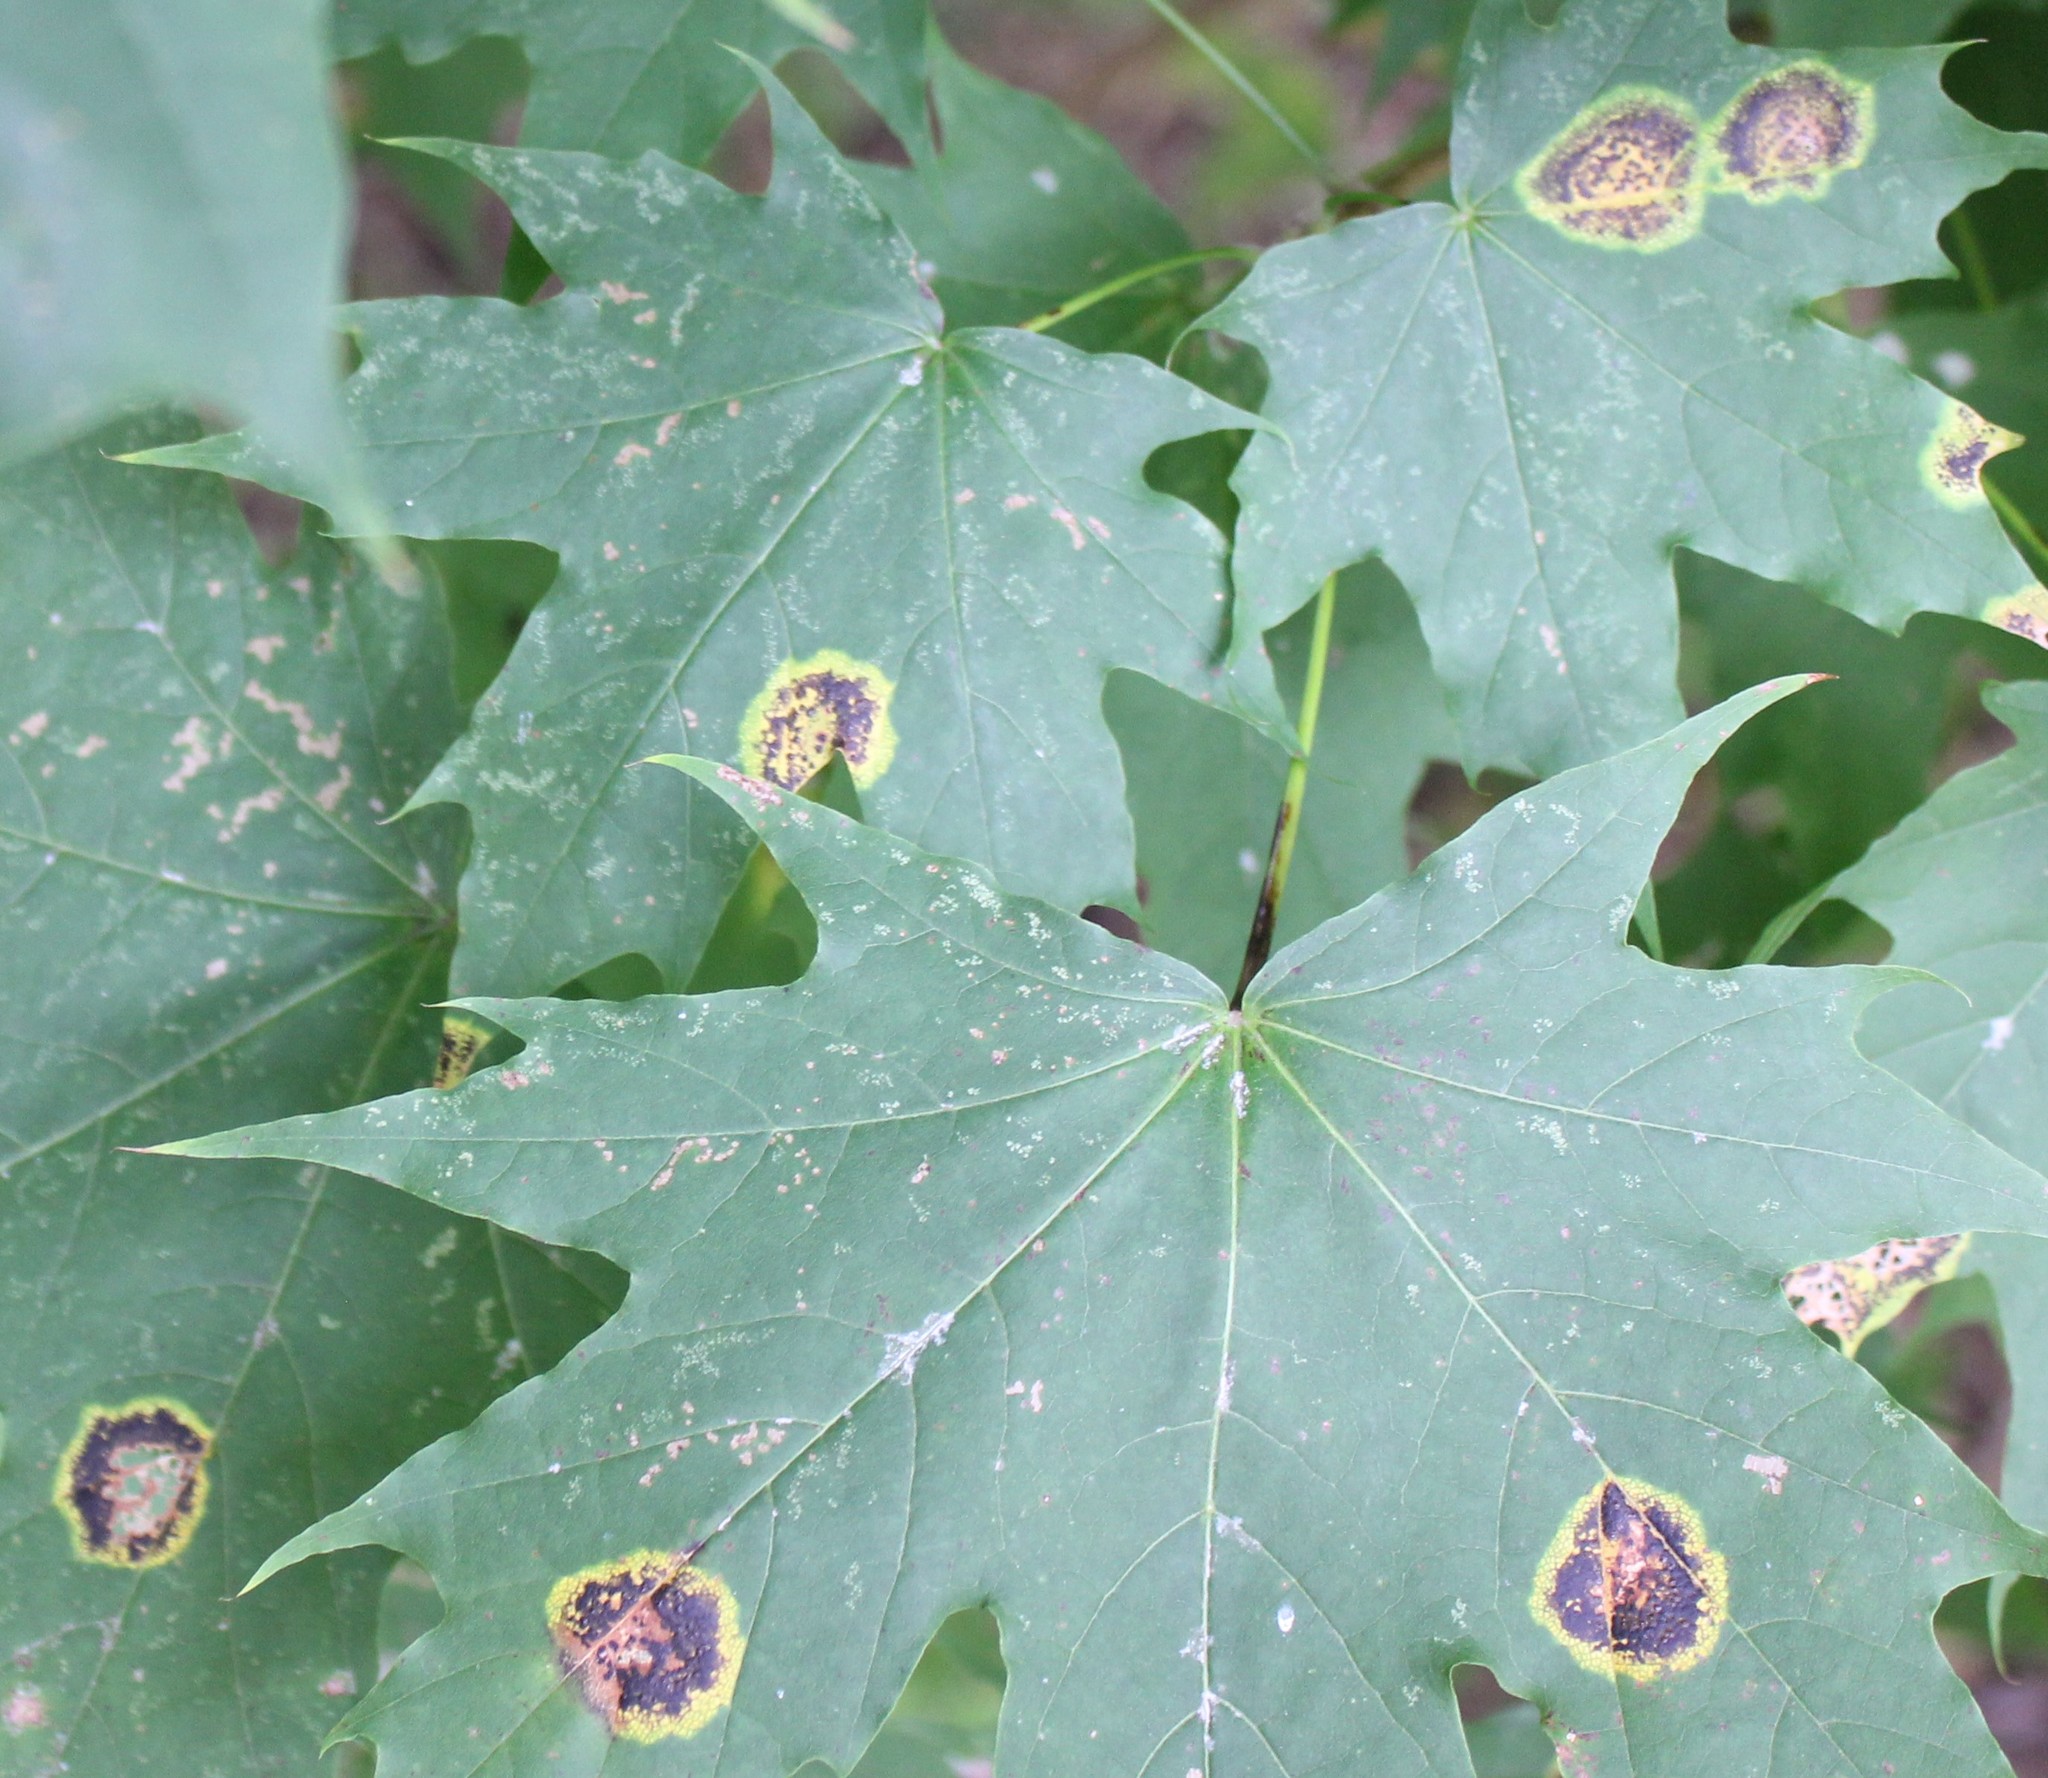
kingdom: Fungi
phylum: Ascomycota
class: Leotiomycetes
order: Rhytismatales
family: Rhytismataceae
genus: Rhytisma
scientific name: Rhytisma acerinum
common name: European tar spot
